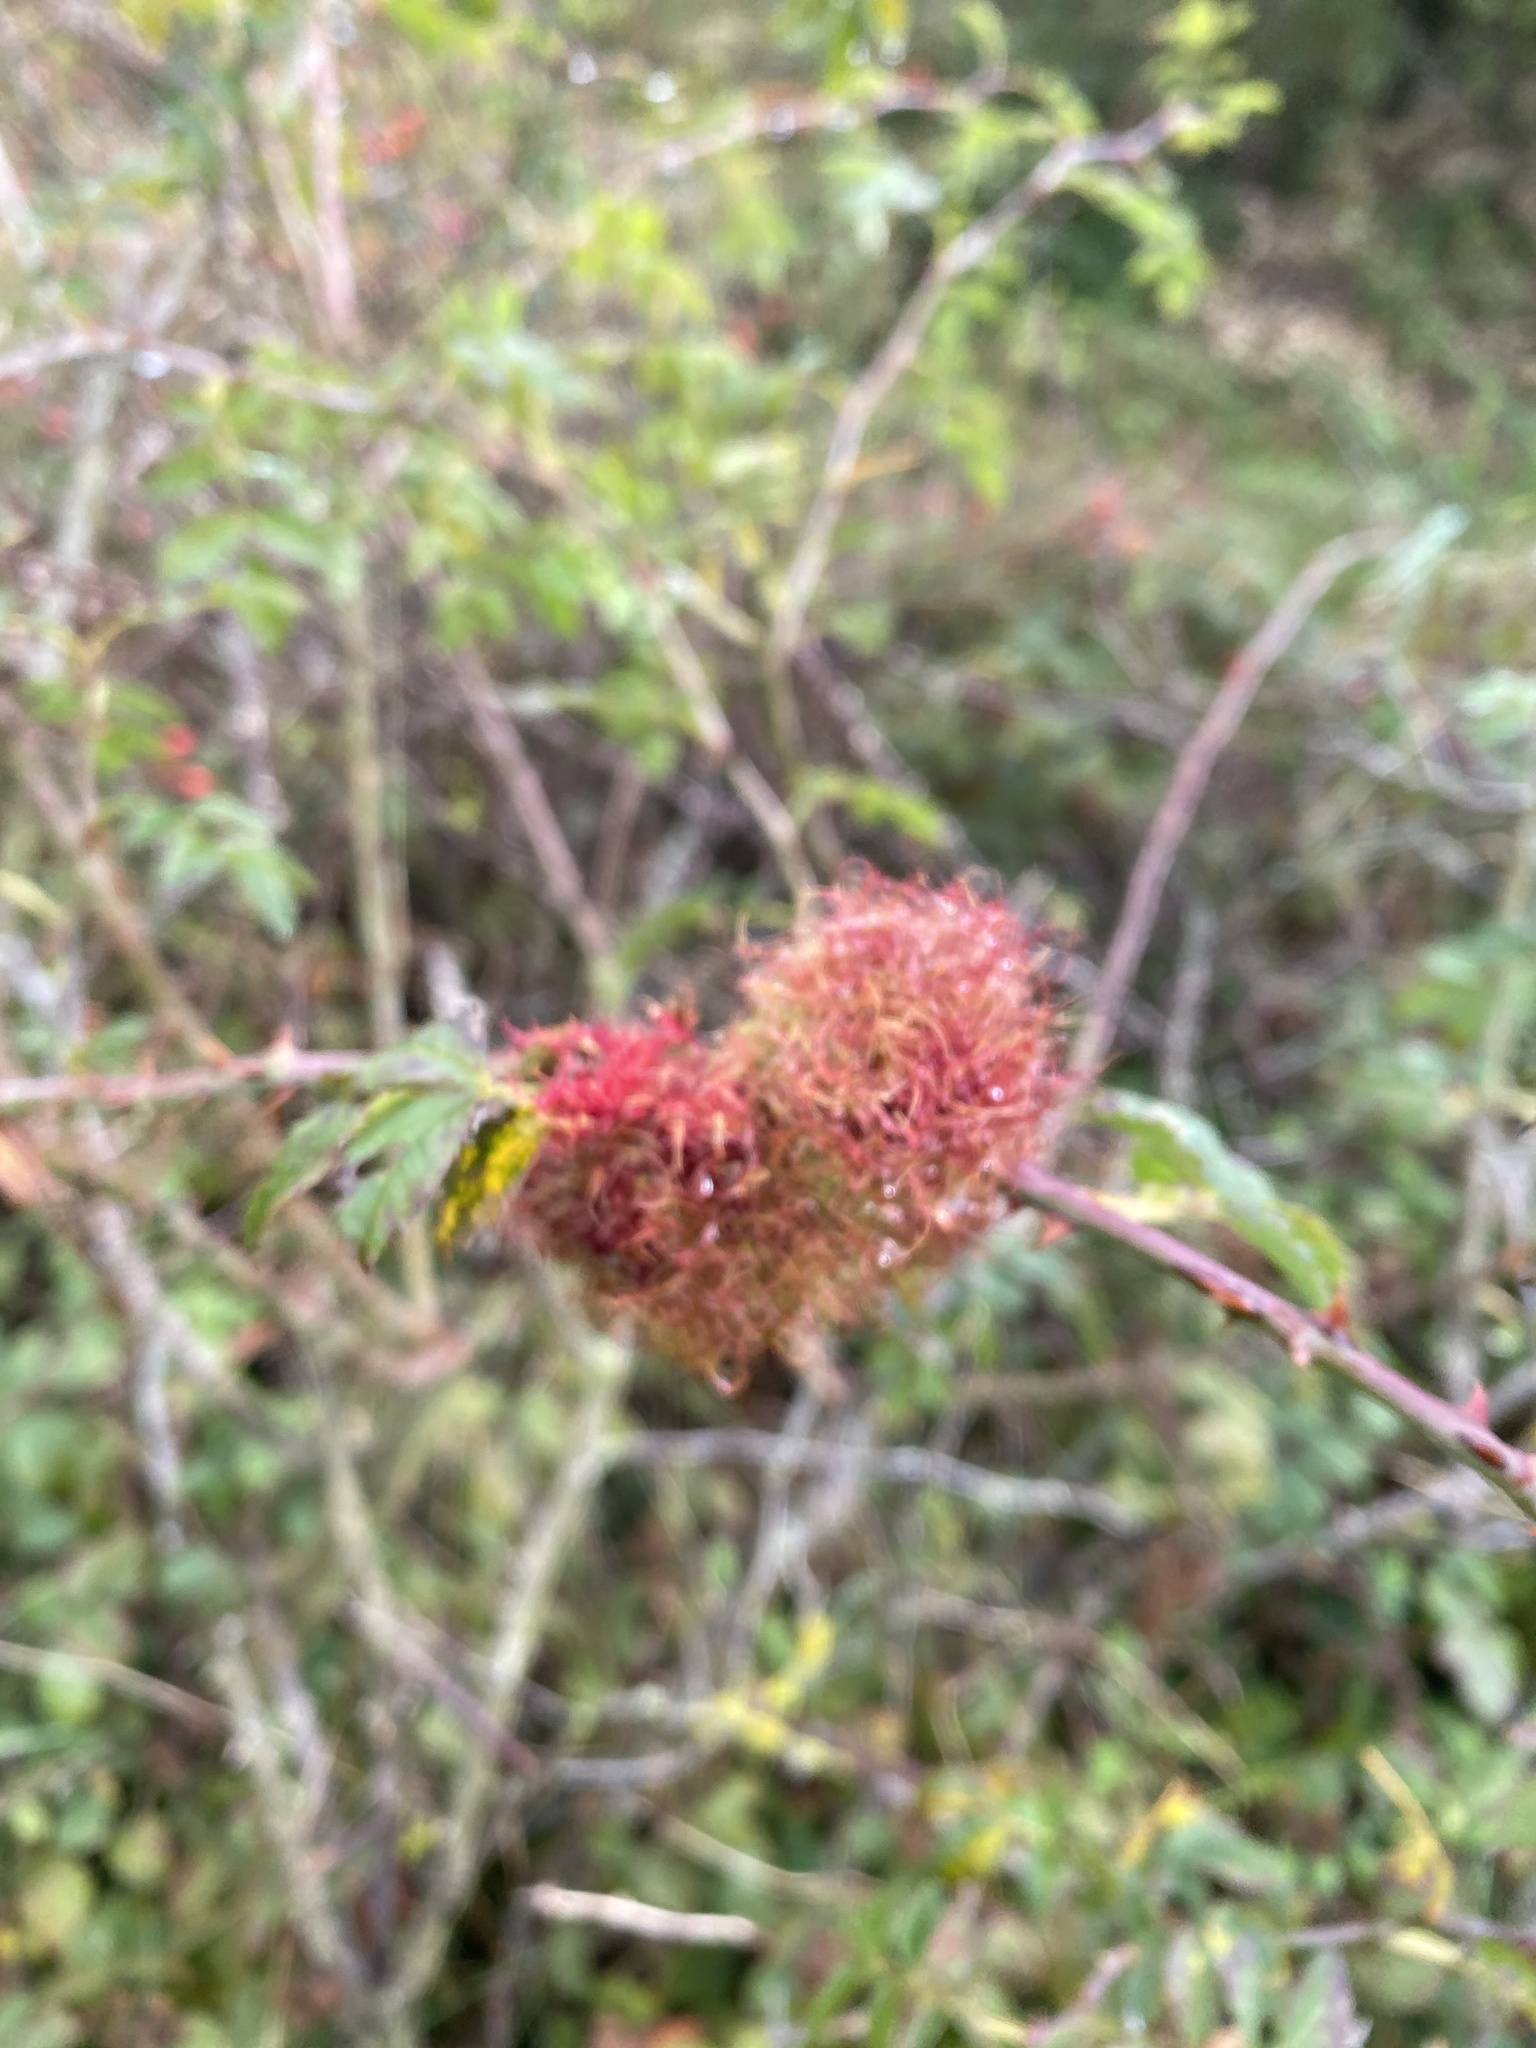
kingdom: Animalia
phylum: Arthropoda
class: Insecta
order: Hymenoptera
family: Cynipidae
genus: Diplolepis
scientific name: Diplolepis rosae
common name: Bedeguar gall
